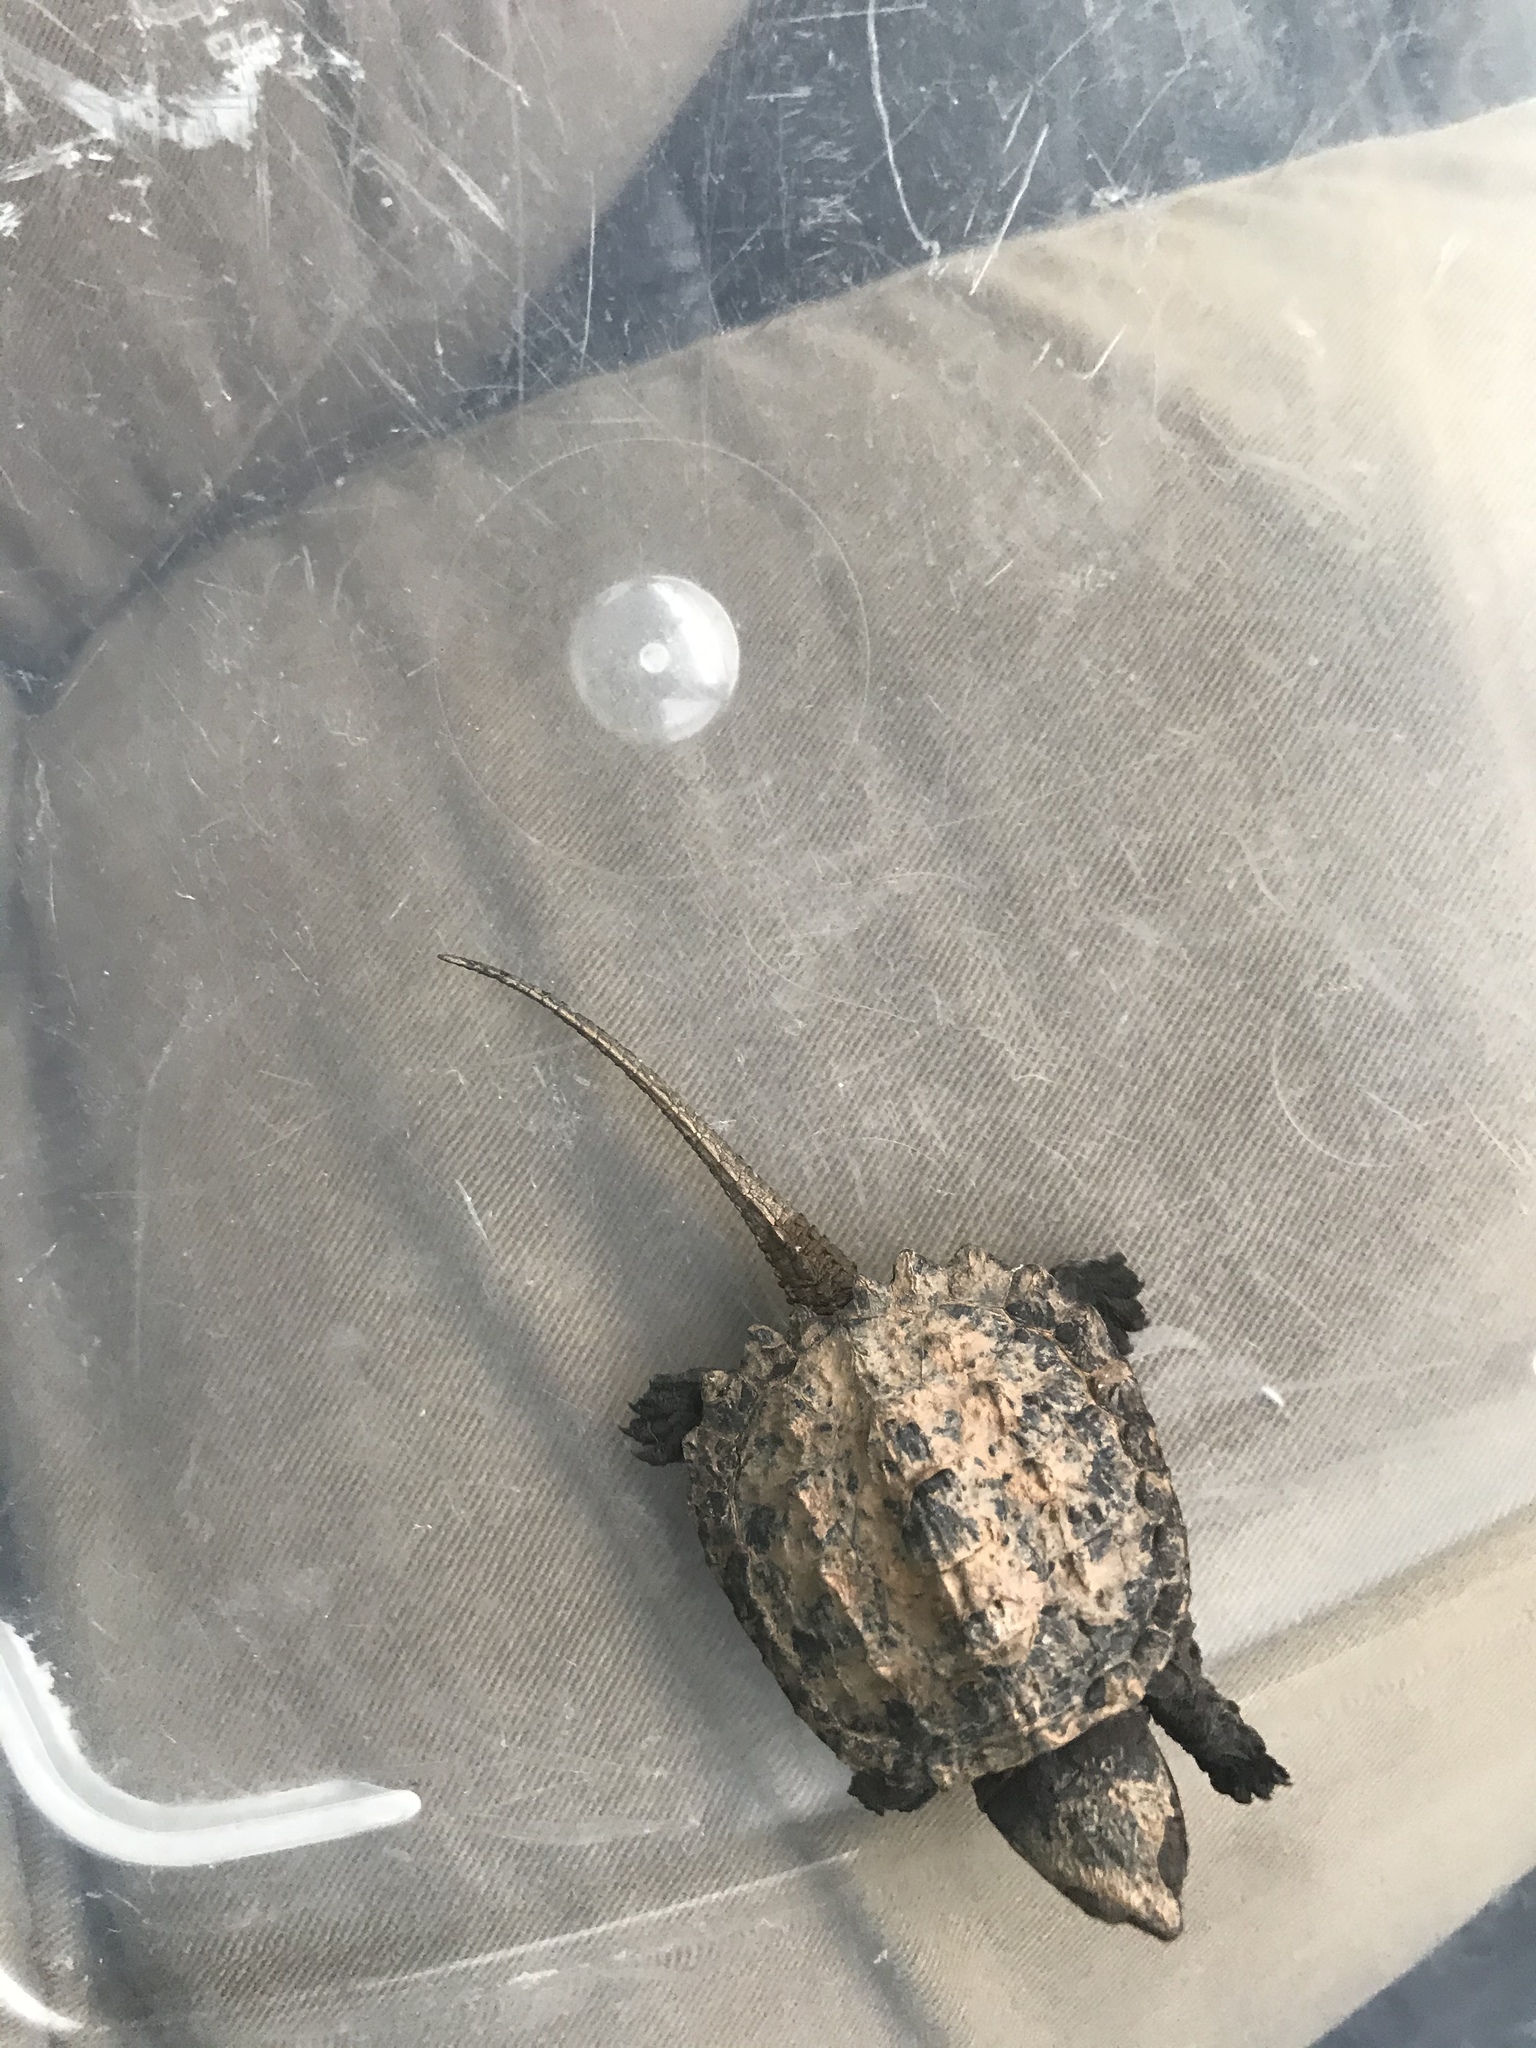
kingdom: Animalia
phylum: Chordata
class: Testudines
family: Chelydridae
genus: Chelydra
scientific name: Chelydra serpentina
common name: Common snapping turtle
